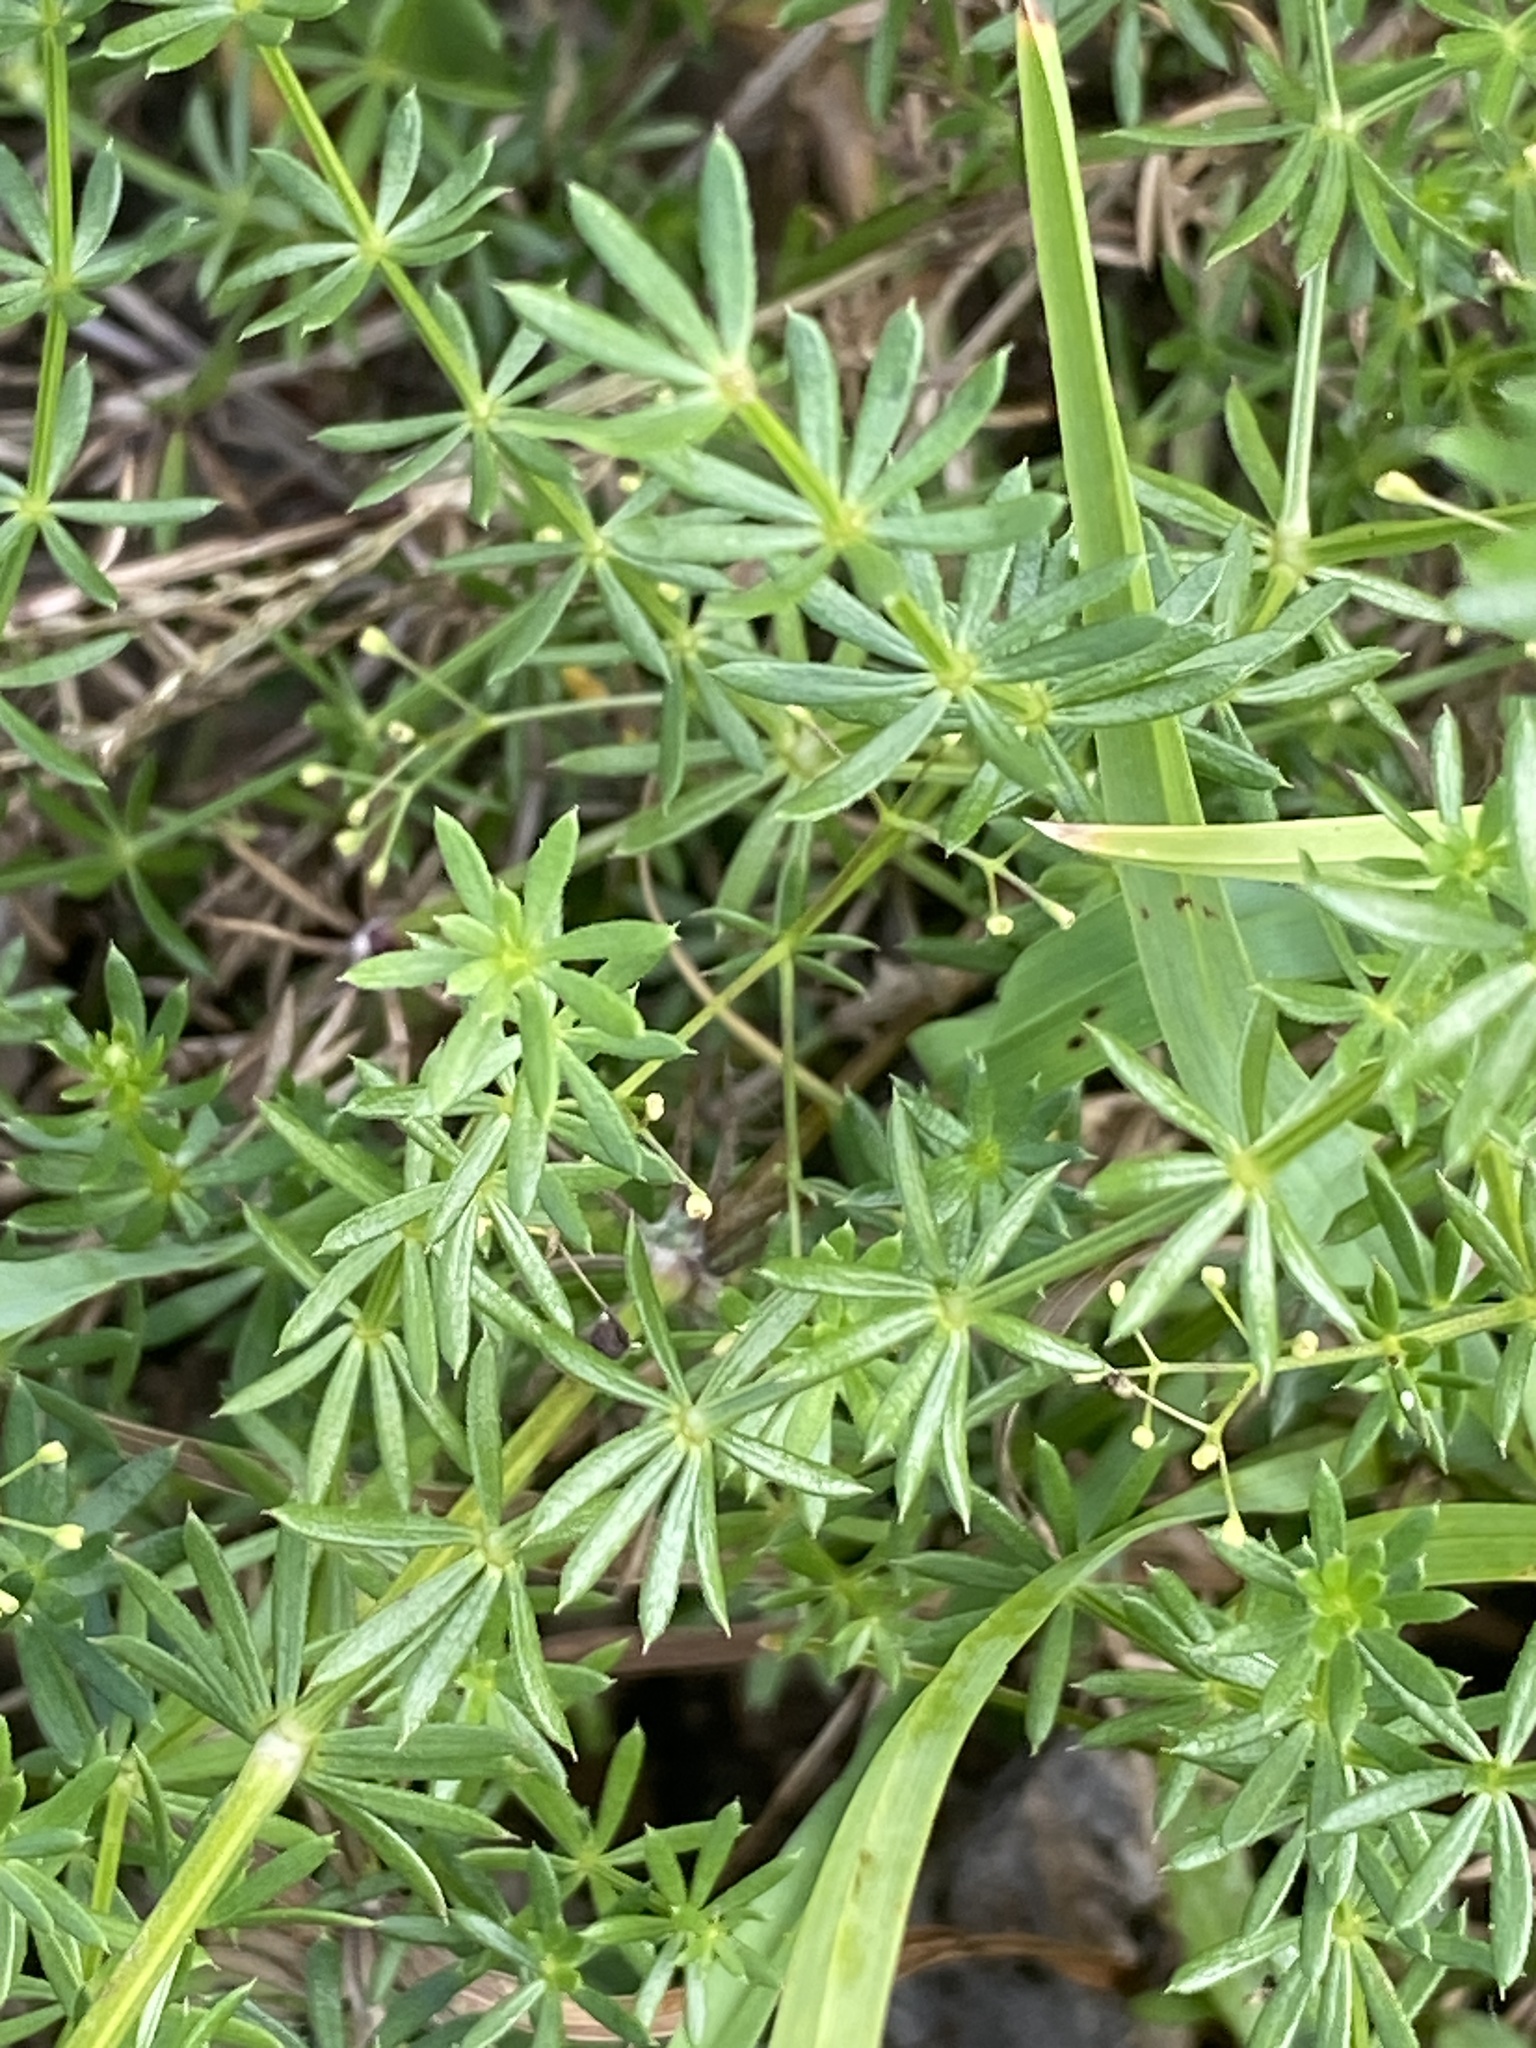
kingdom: Plantae
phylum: Tracheophyta
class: Magnoliopsida
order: Gentianales
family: Rubiaceae
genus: Galium
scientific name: Galium album
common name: White bedstraw
